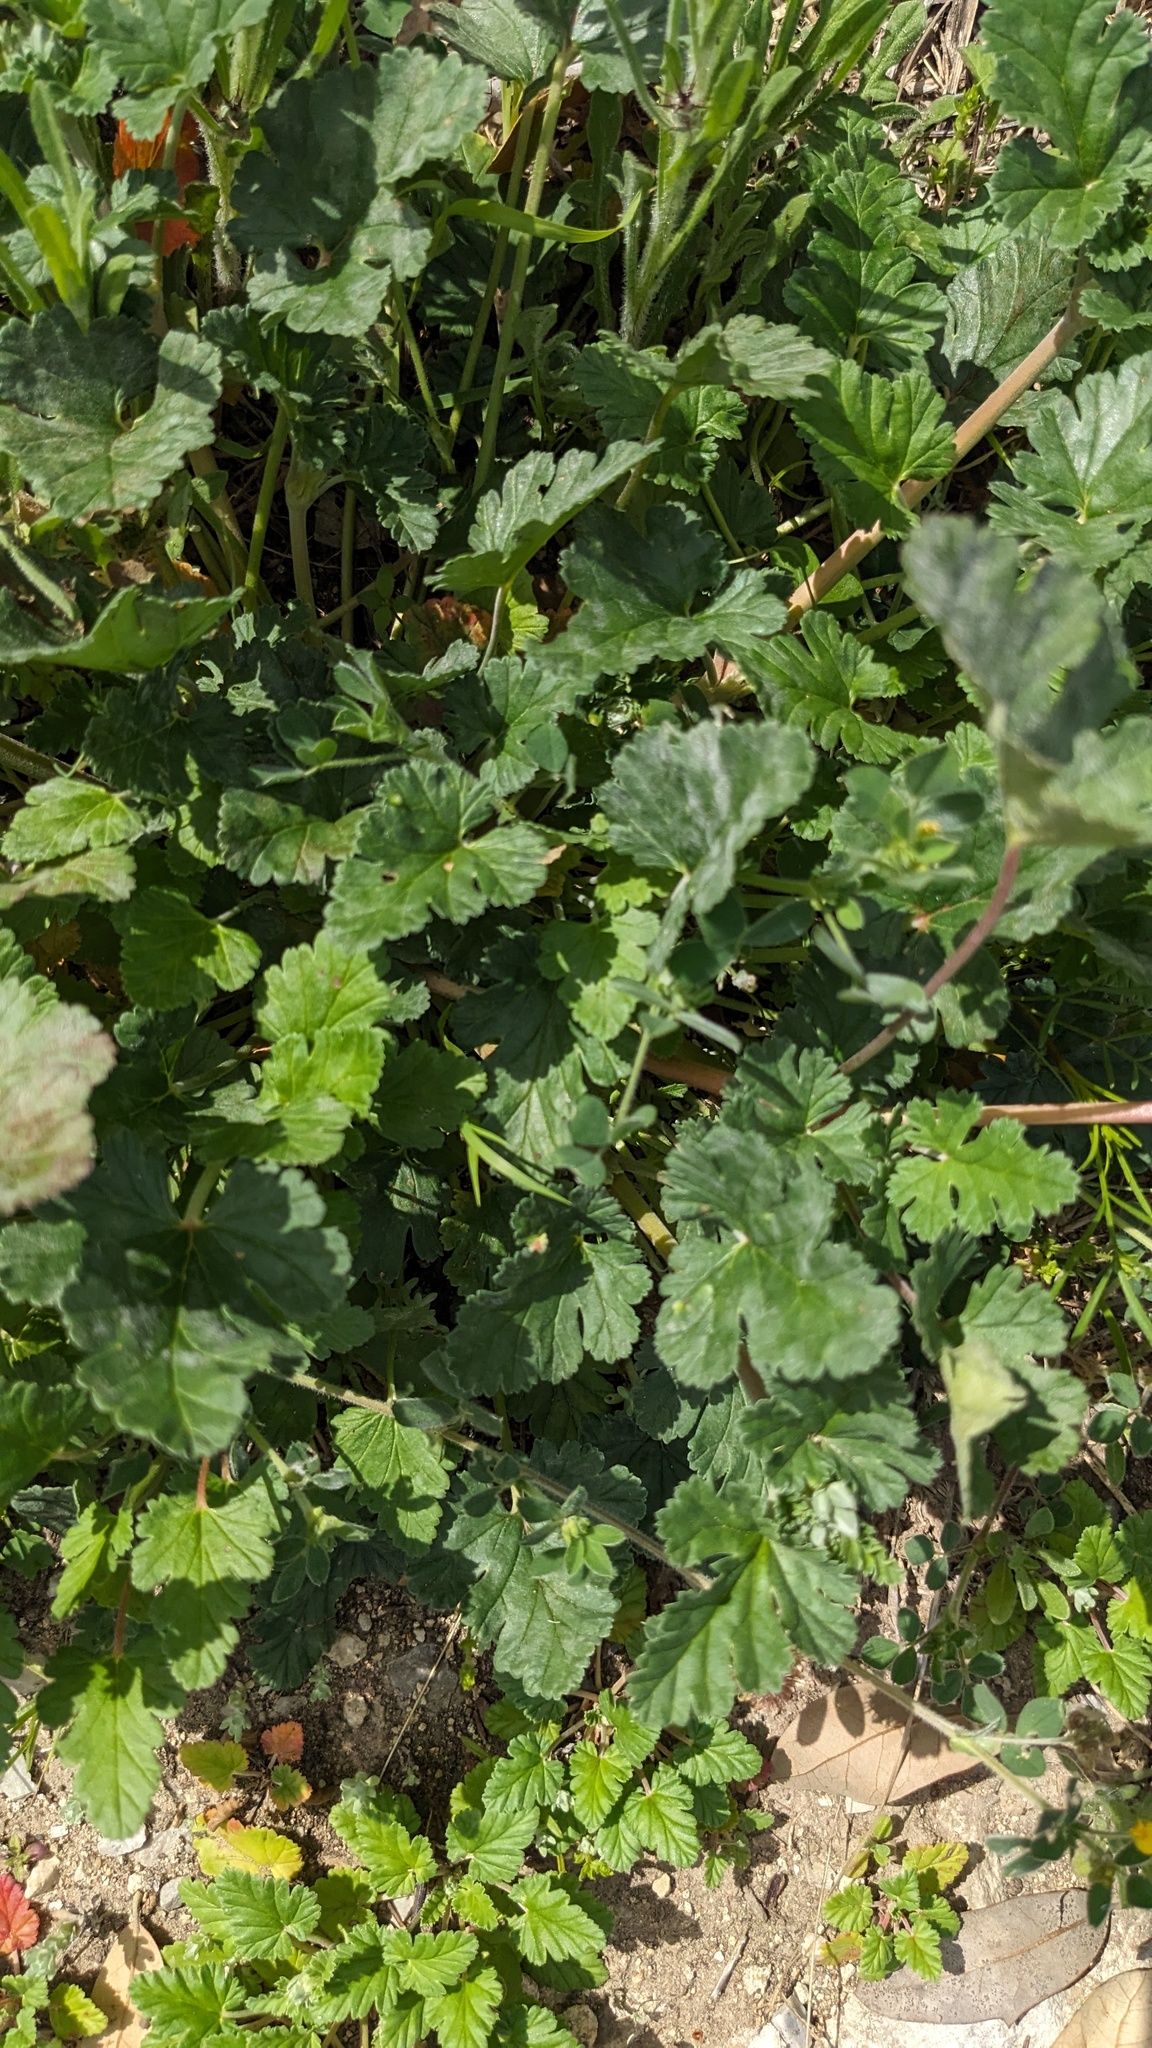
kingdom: Plantae
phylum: Tracheophyta
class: Magnoliopsida
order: Geraniales
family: Geraniaceae
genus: Erodium
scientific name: Erodium texanum
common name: Texas stork's-bill
